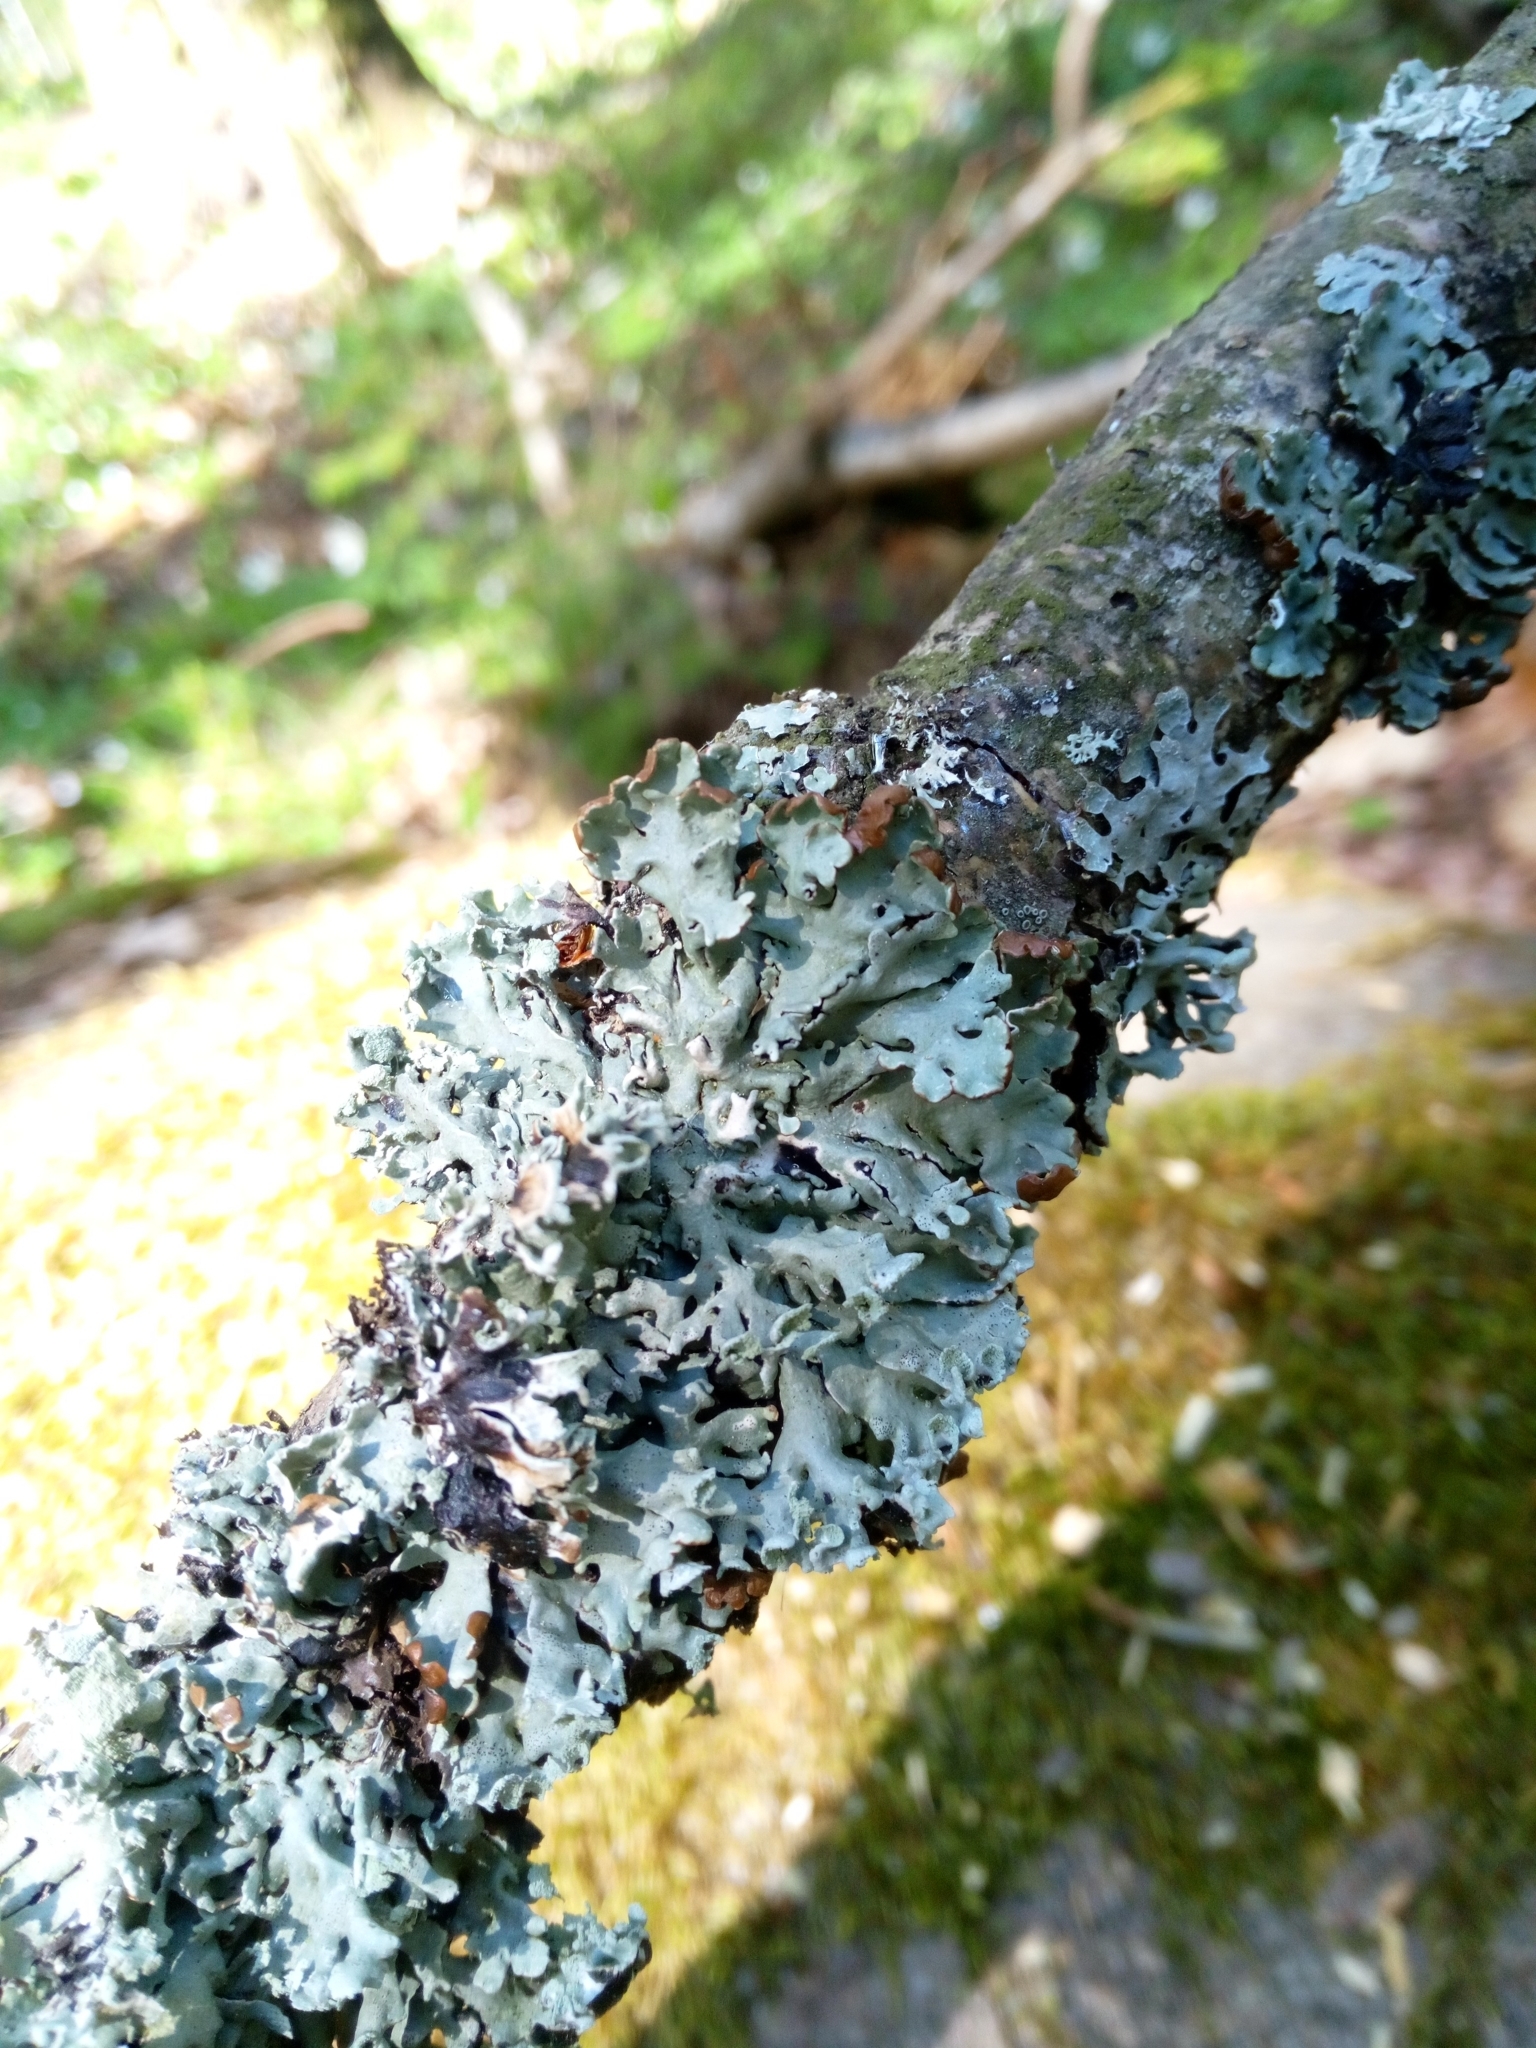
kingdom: Fungi
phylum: Ascomycota
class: Lecanoromycetes
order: Lecanorales
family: Parmeliaceae
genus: Hypogymnia
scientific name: Hypogymnia physodes
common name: Dark crottle
